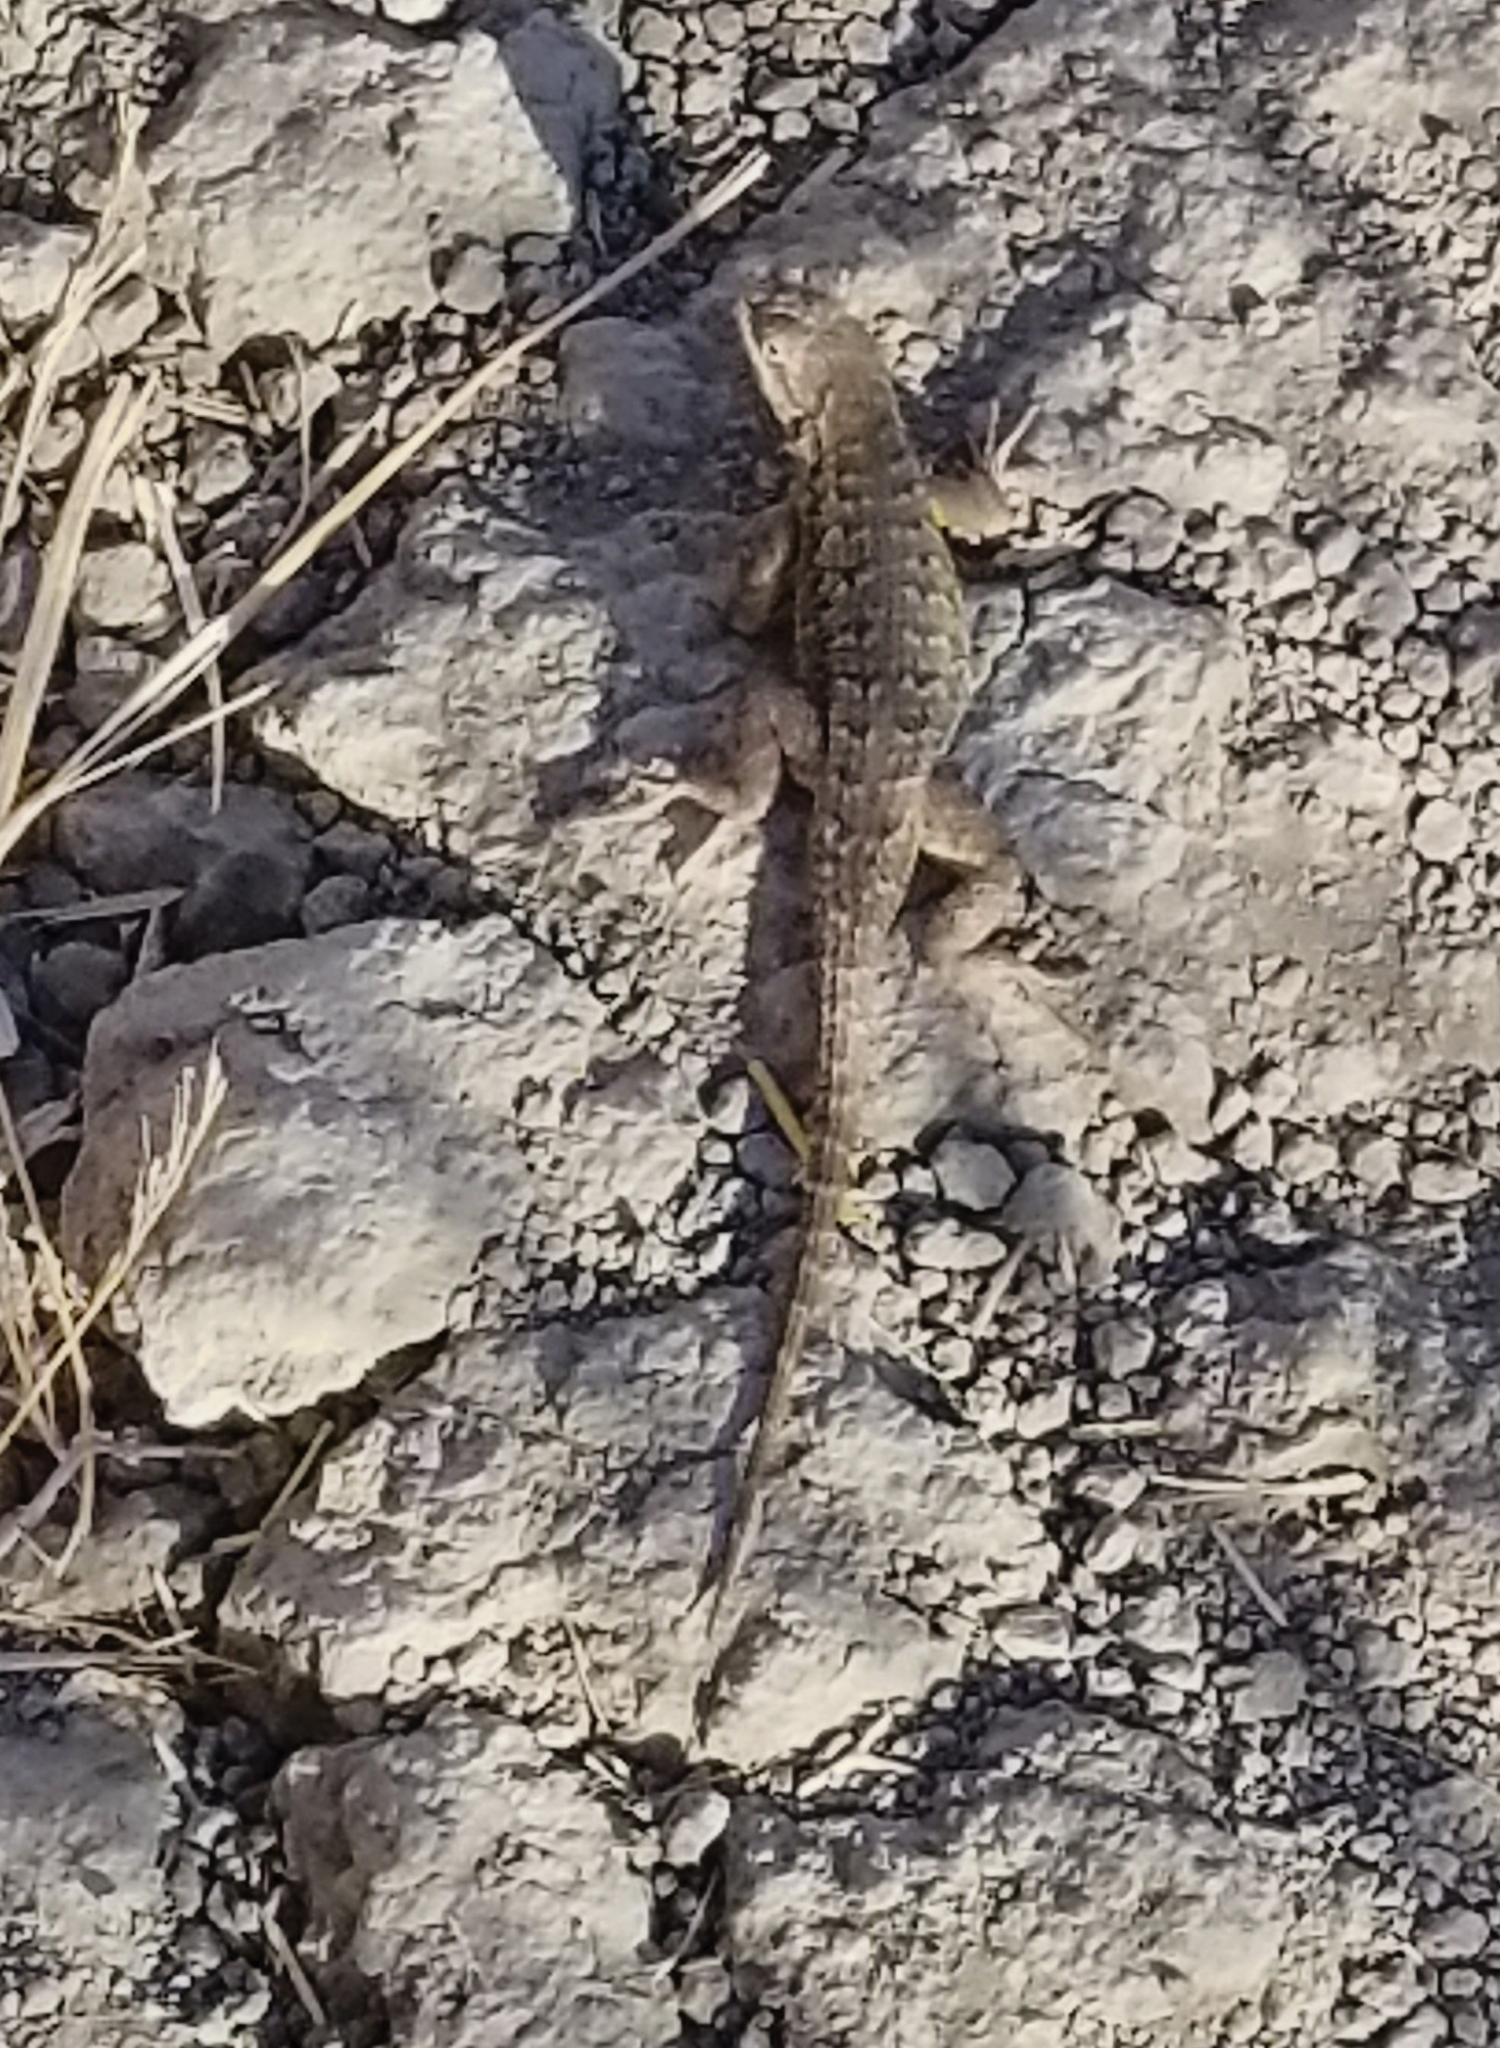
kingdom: Animalia
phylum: Chordata
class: Squamata
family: Phrynosomatidae
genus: Sceloporus
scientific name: Sceloporus occidentalis
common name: Western fence lizard
